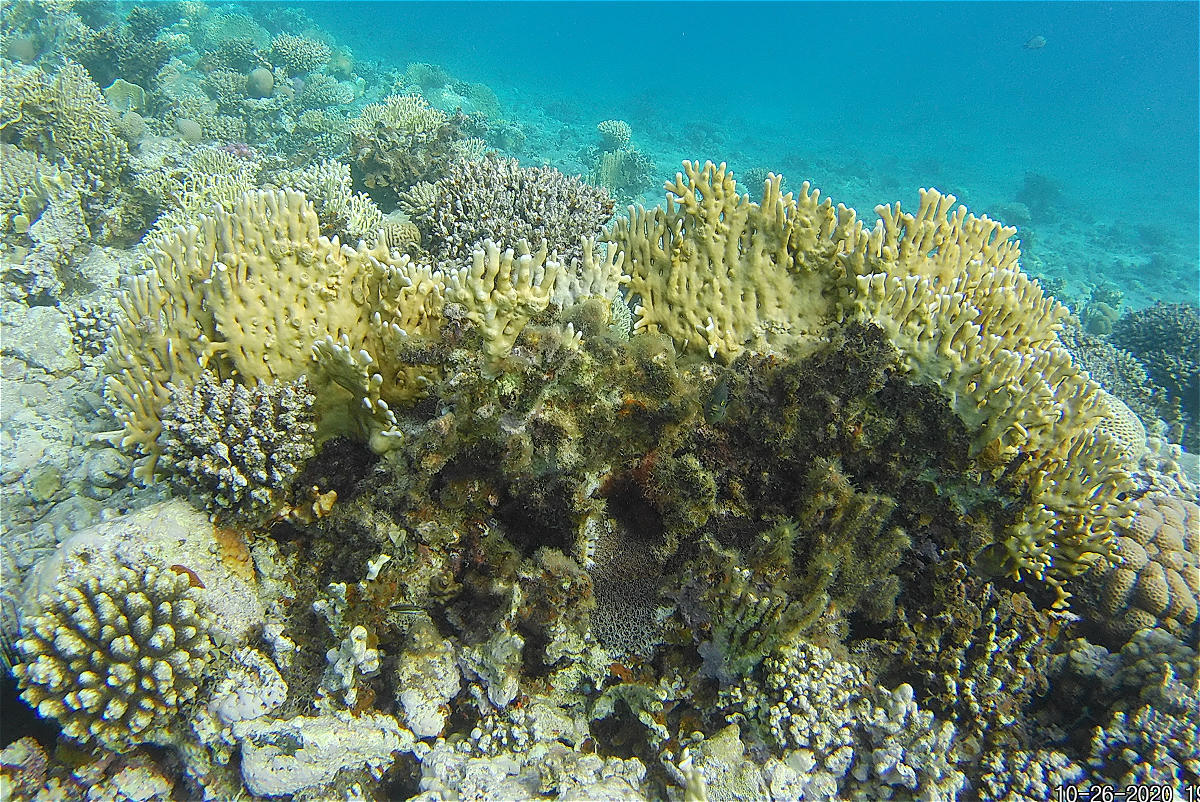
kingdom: Animalia
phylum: Cnidaria
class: Hydrozoa
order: Anthoathecata
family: Milleporidae
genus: Millepora
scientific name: Millepora dichotoma
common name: Ramified fire coral
